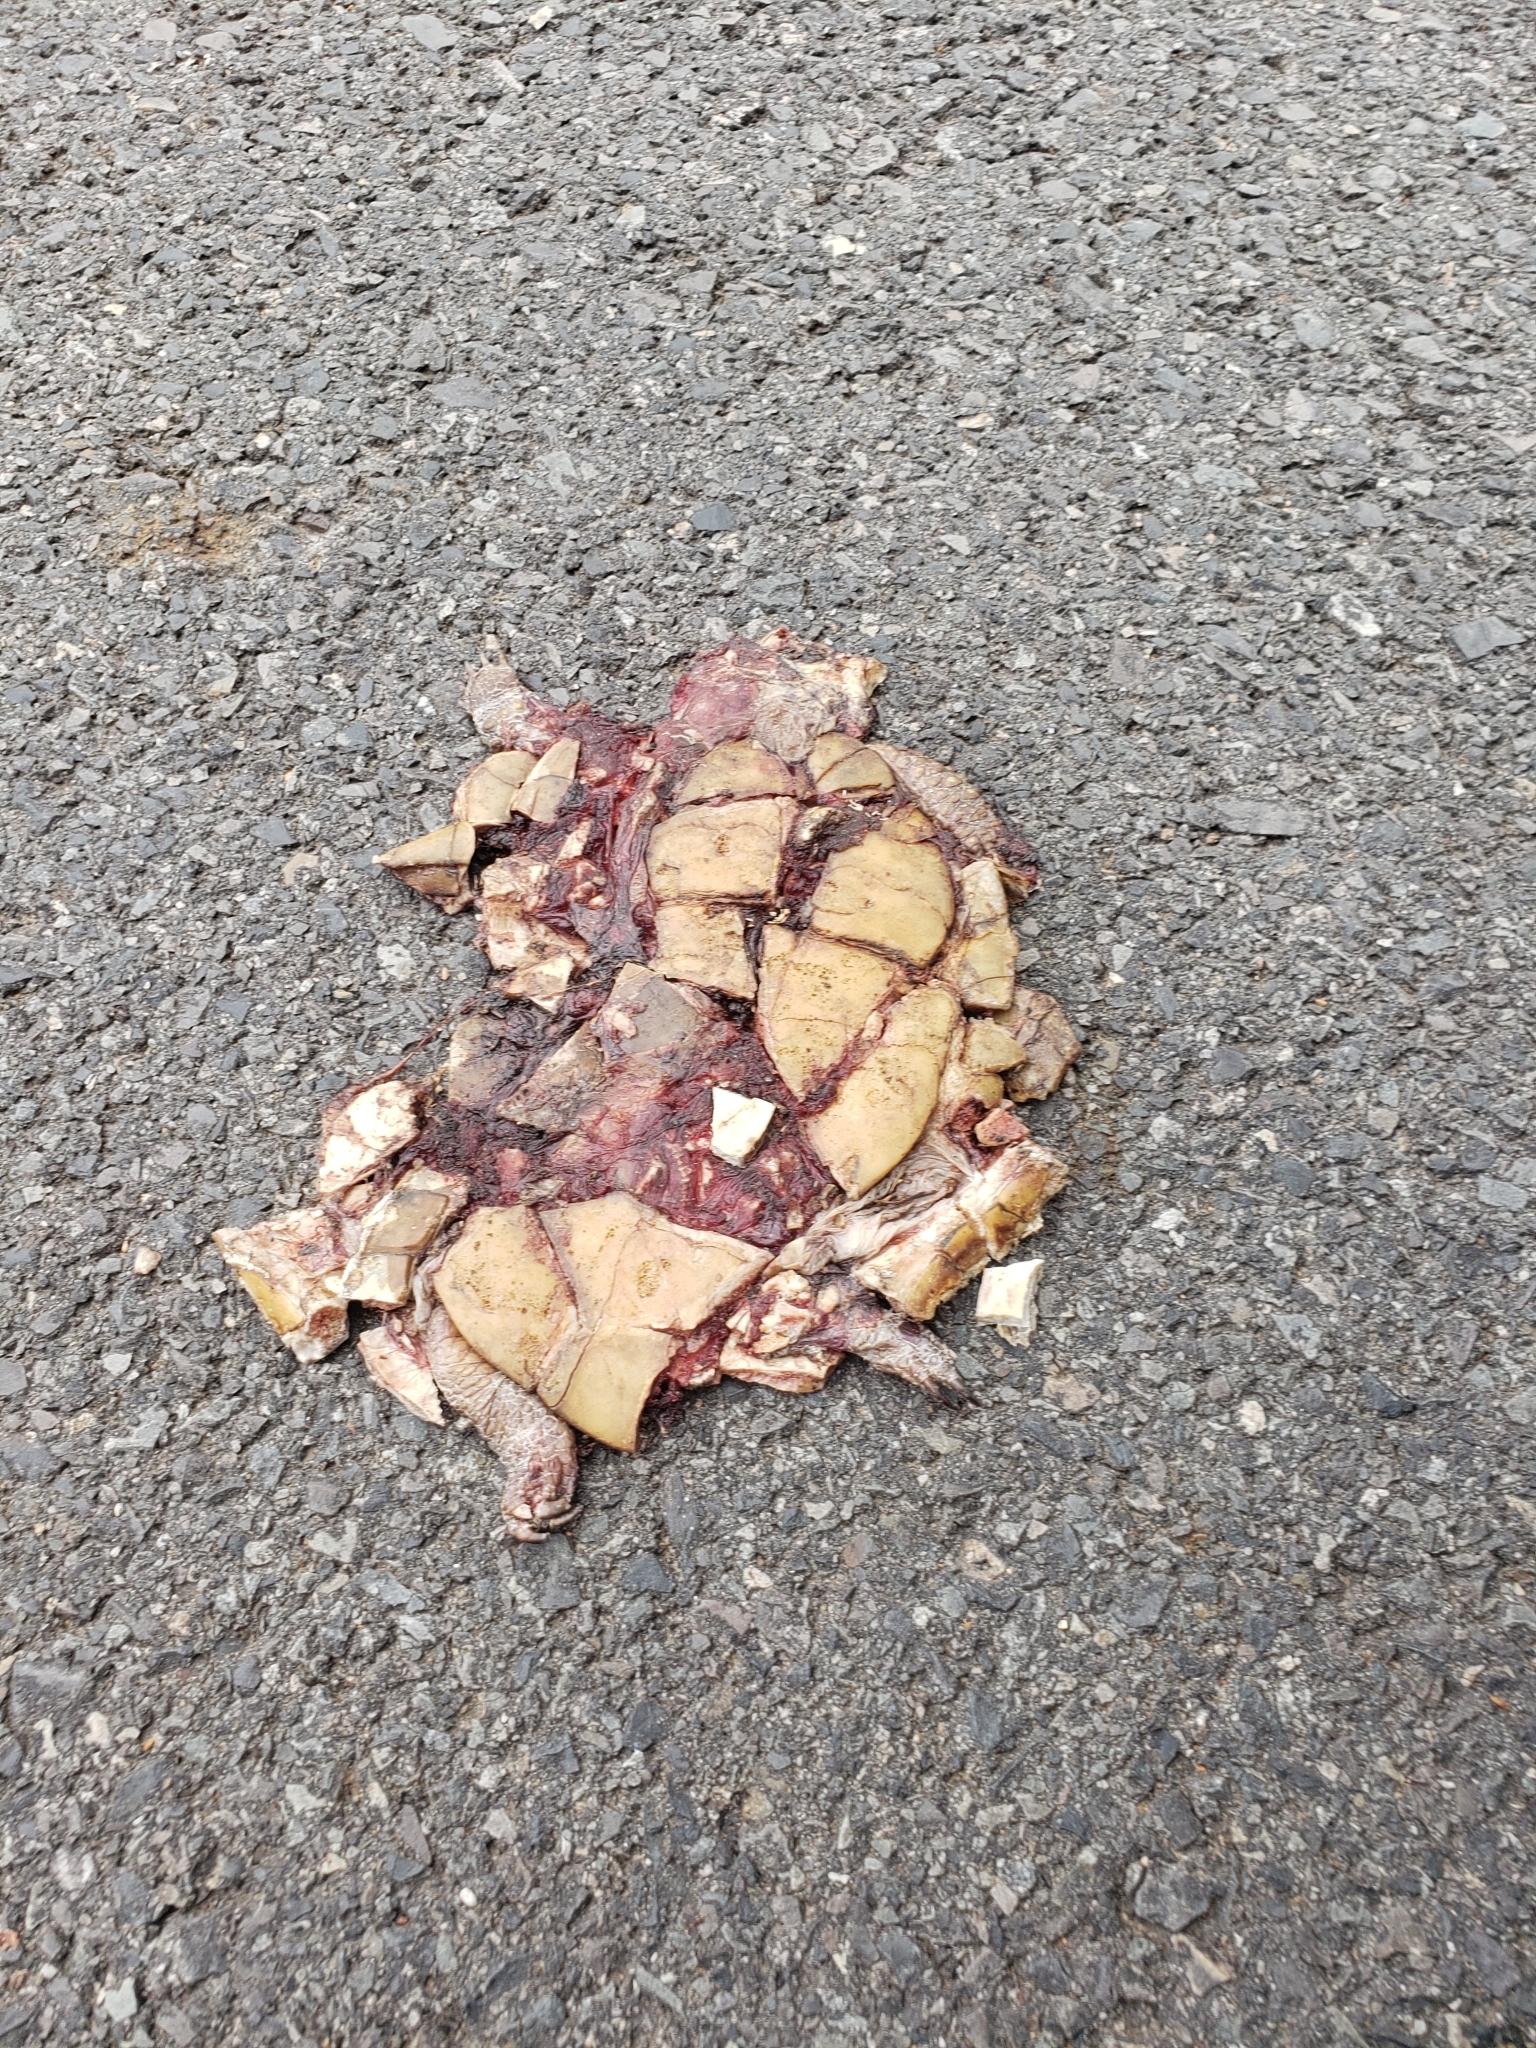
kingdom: Animalia
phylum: Chordata
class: Testudines
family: Emydidae
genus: Terrapene
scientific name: Terrapene carolina
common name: Common box turtle
